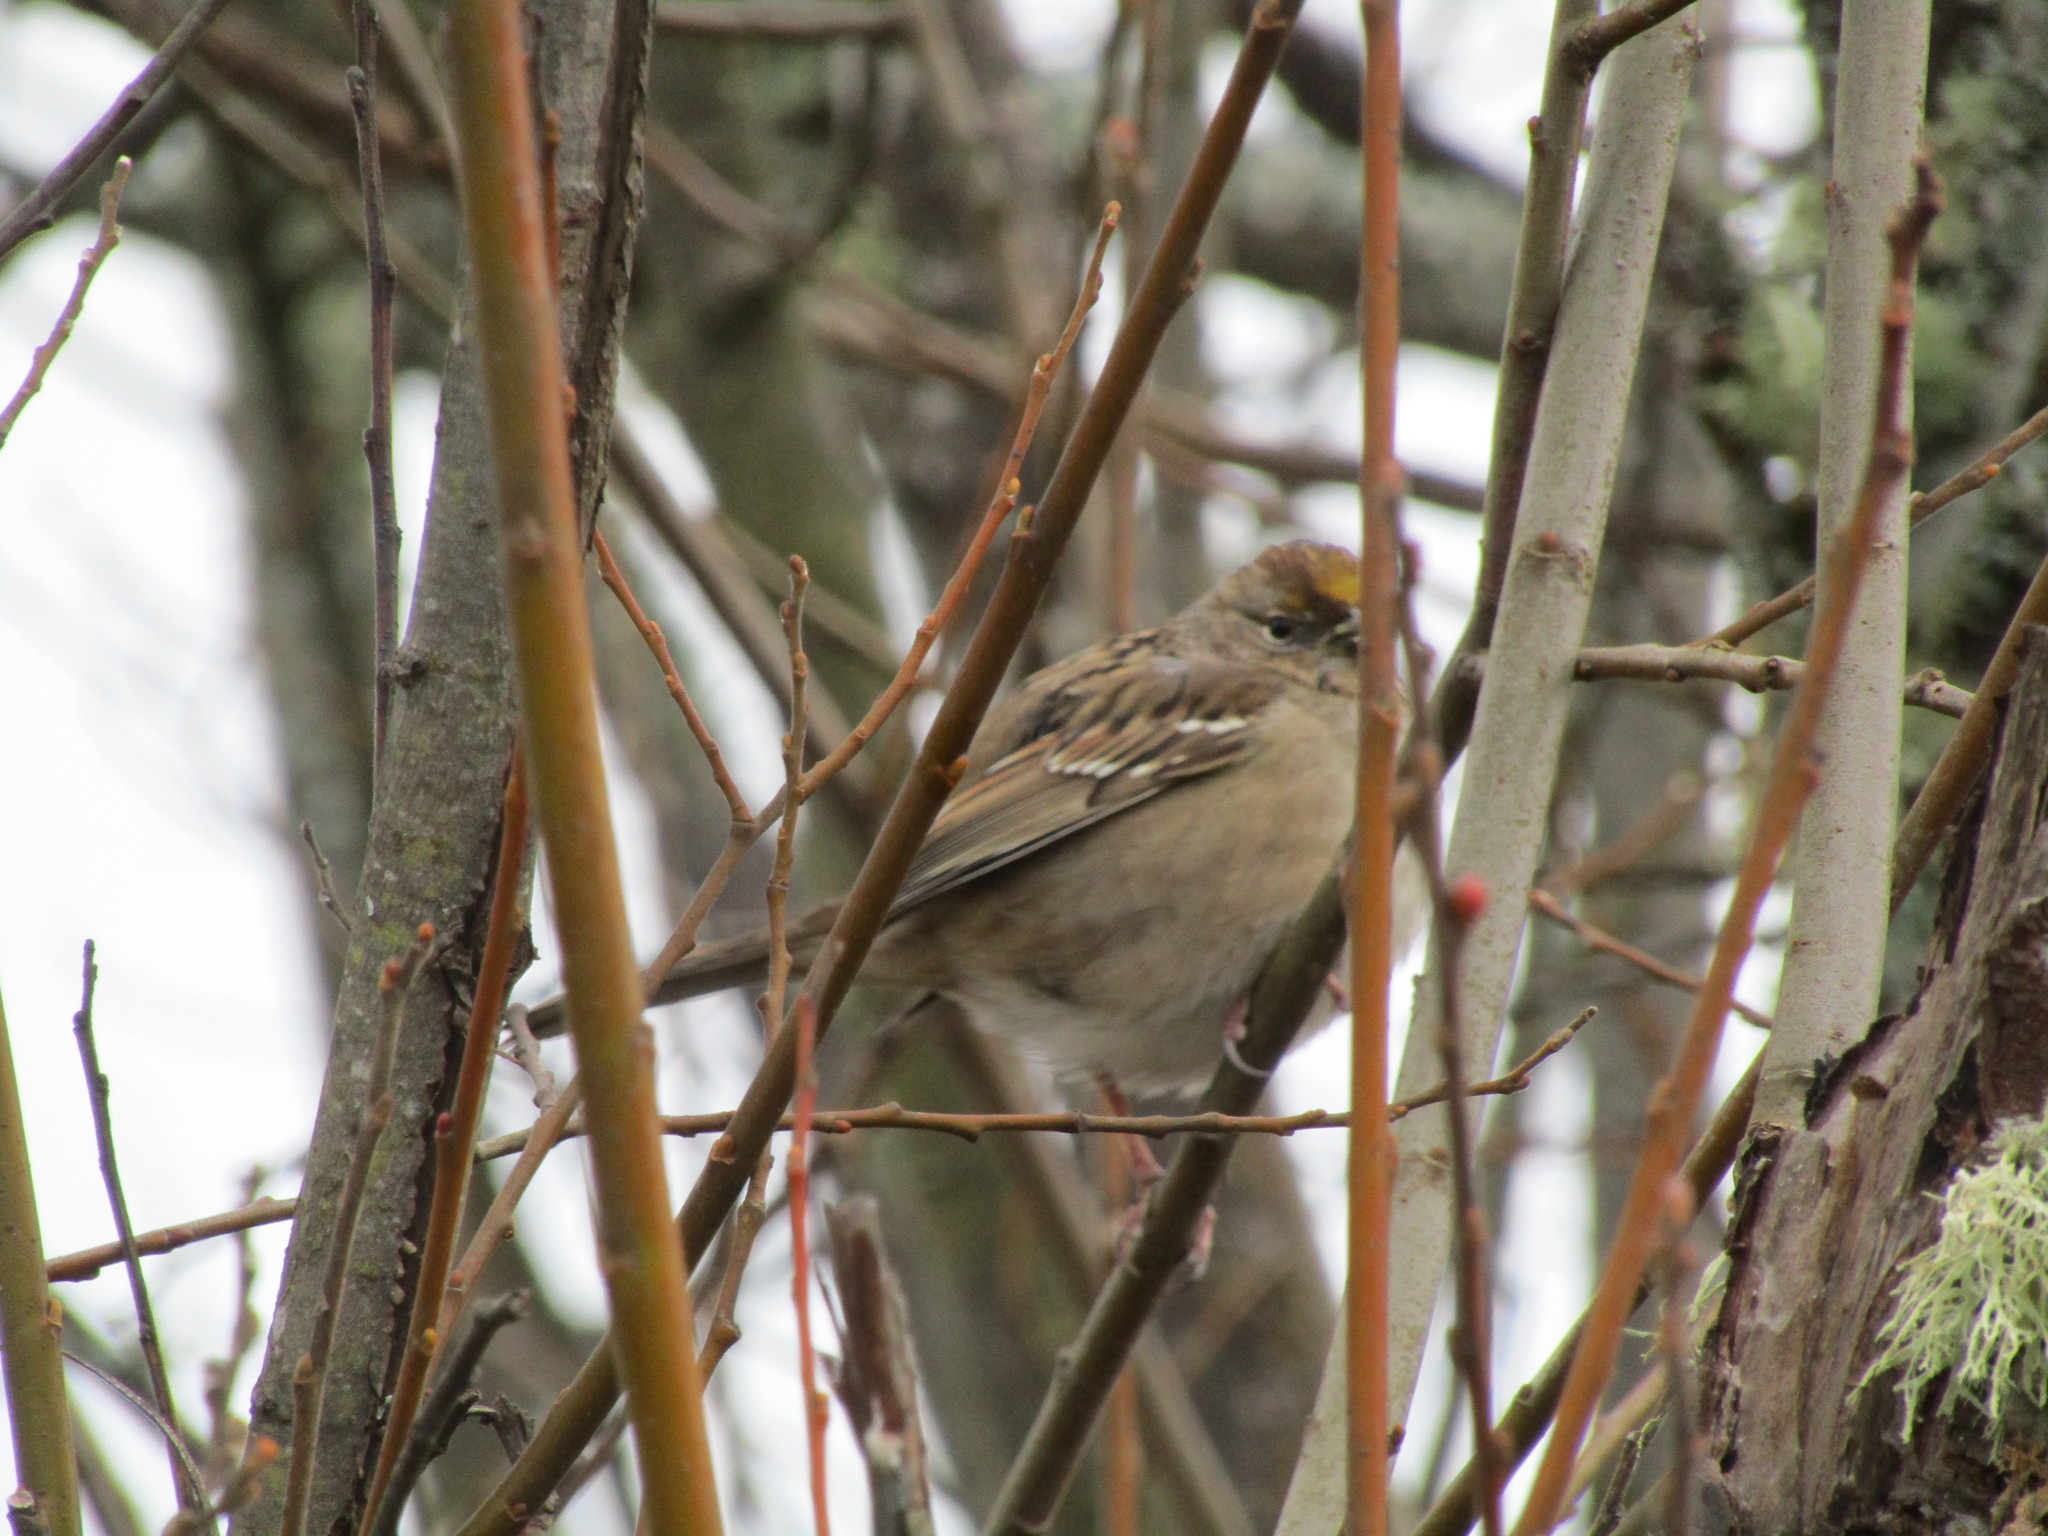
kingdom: Animalia
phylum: Chordata
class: Aves
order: Passeriformes
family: Passerellidae
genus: Zonotrichia
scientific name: Zonotrichia atricapilla
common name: Golden-crowned sparrow
